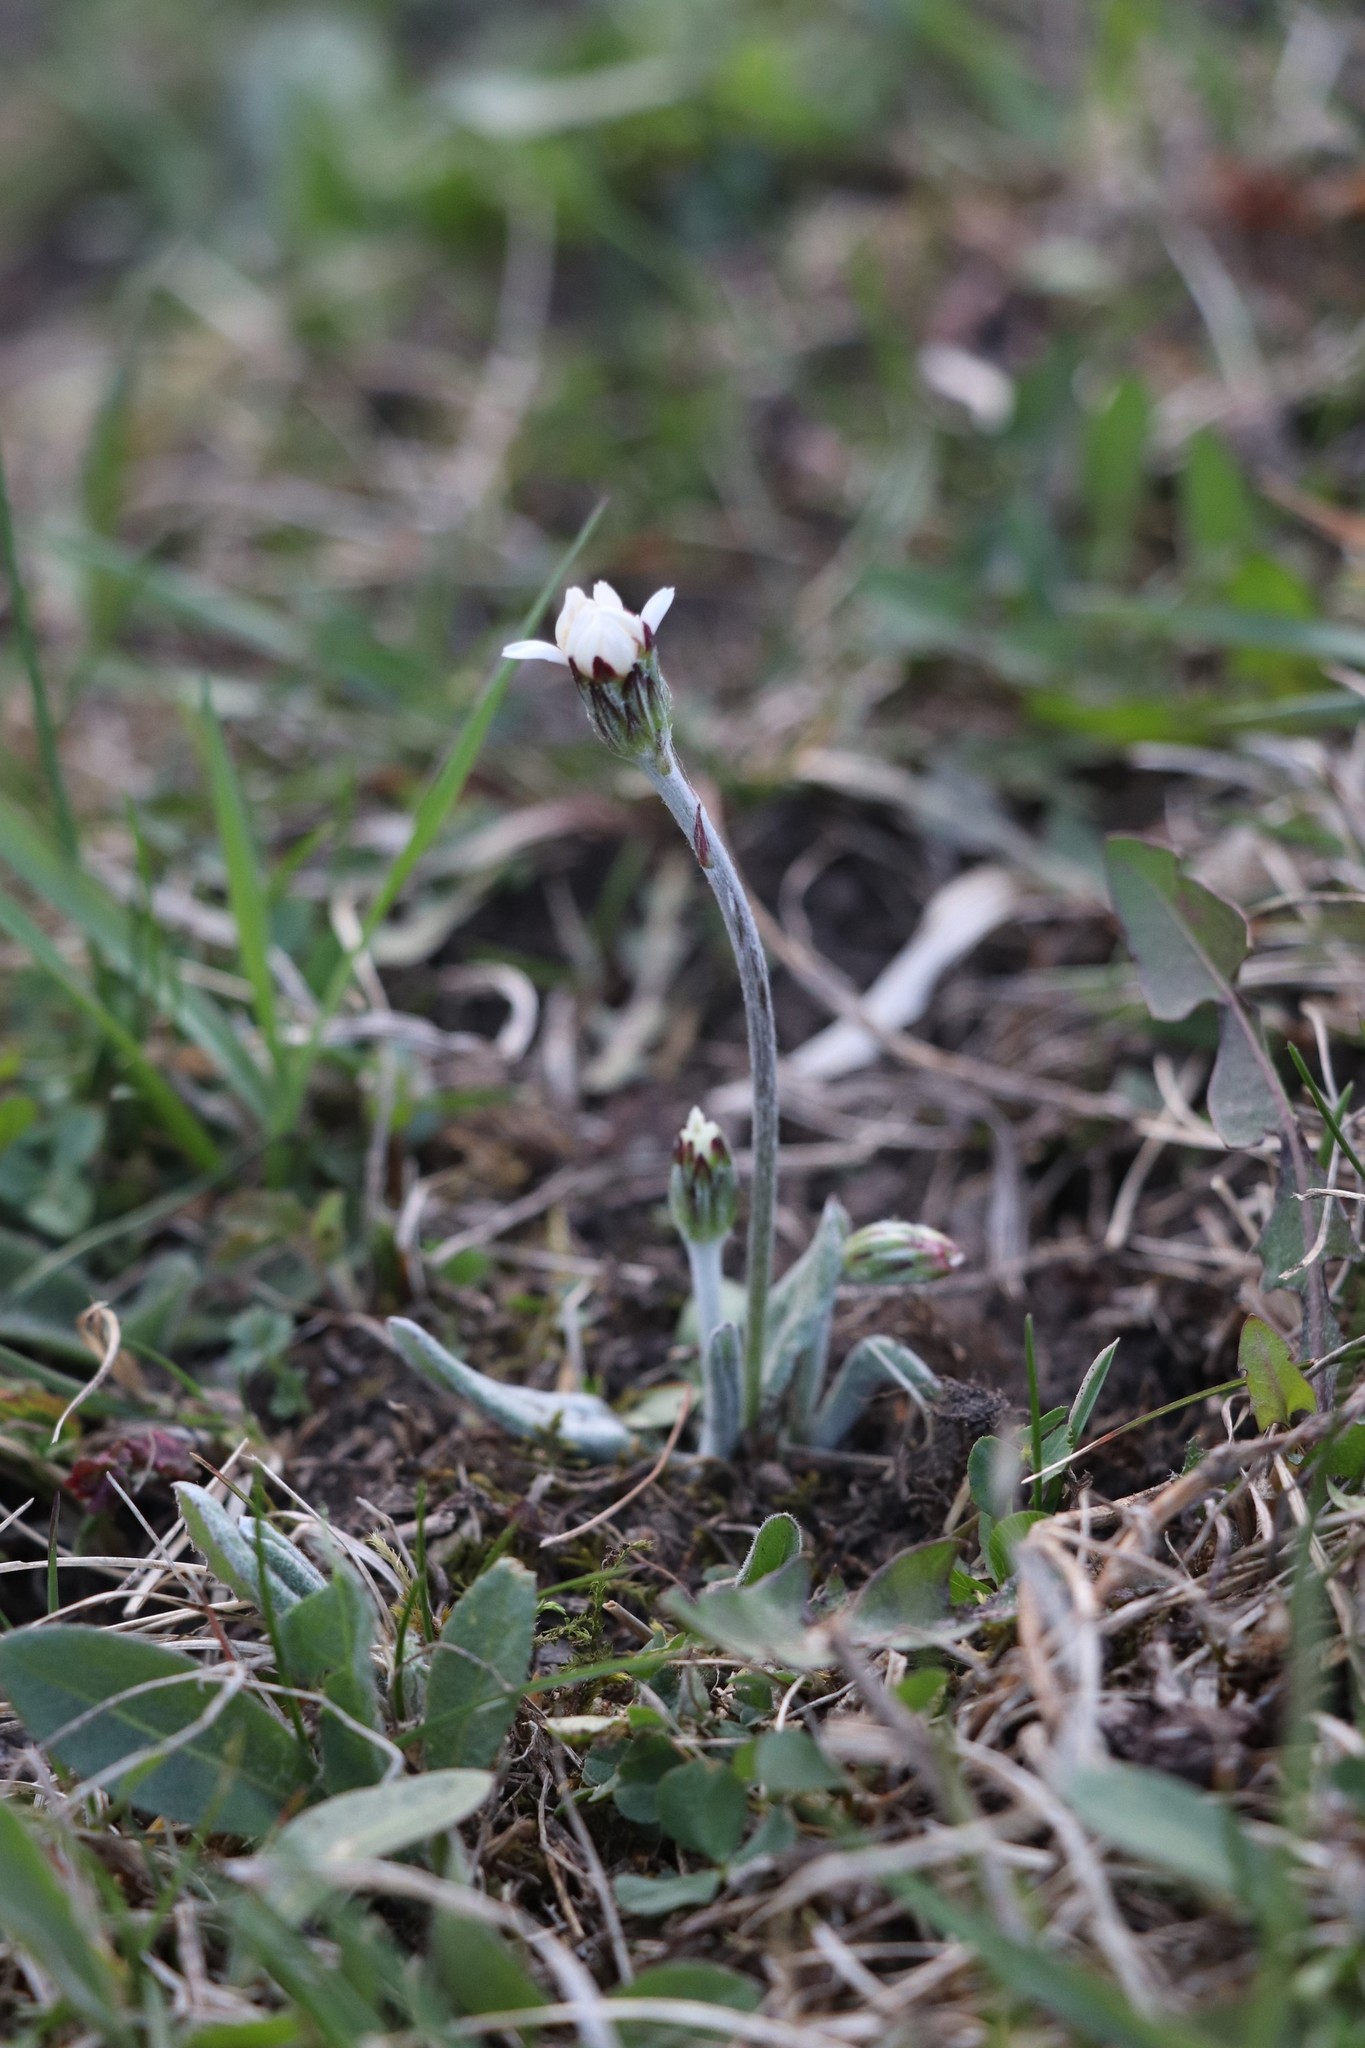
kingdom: Plantae
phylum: Tracheophyta
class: Magnoliopsida
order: Asterales
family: Asteraceae
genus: Leibnitzia
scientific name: Leibnitzia anandria
